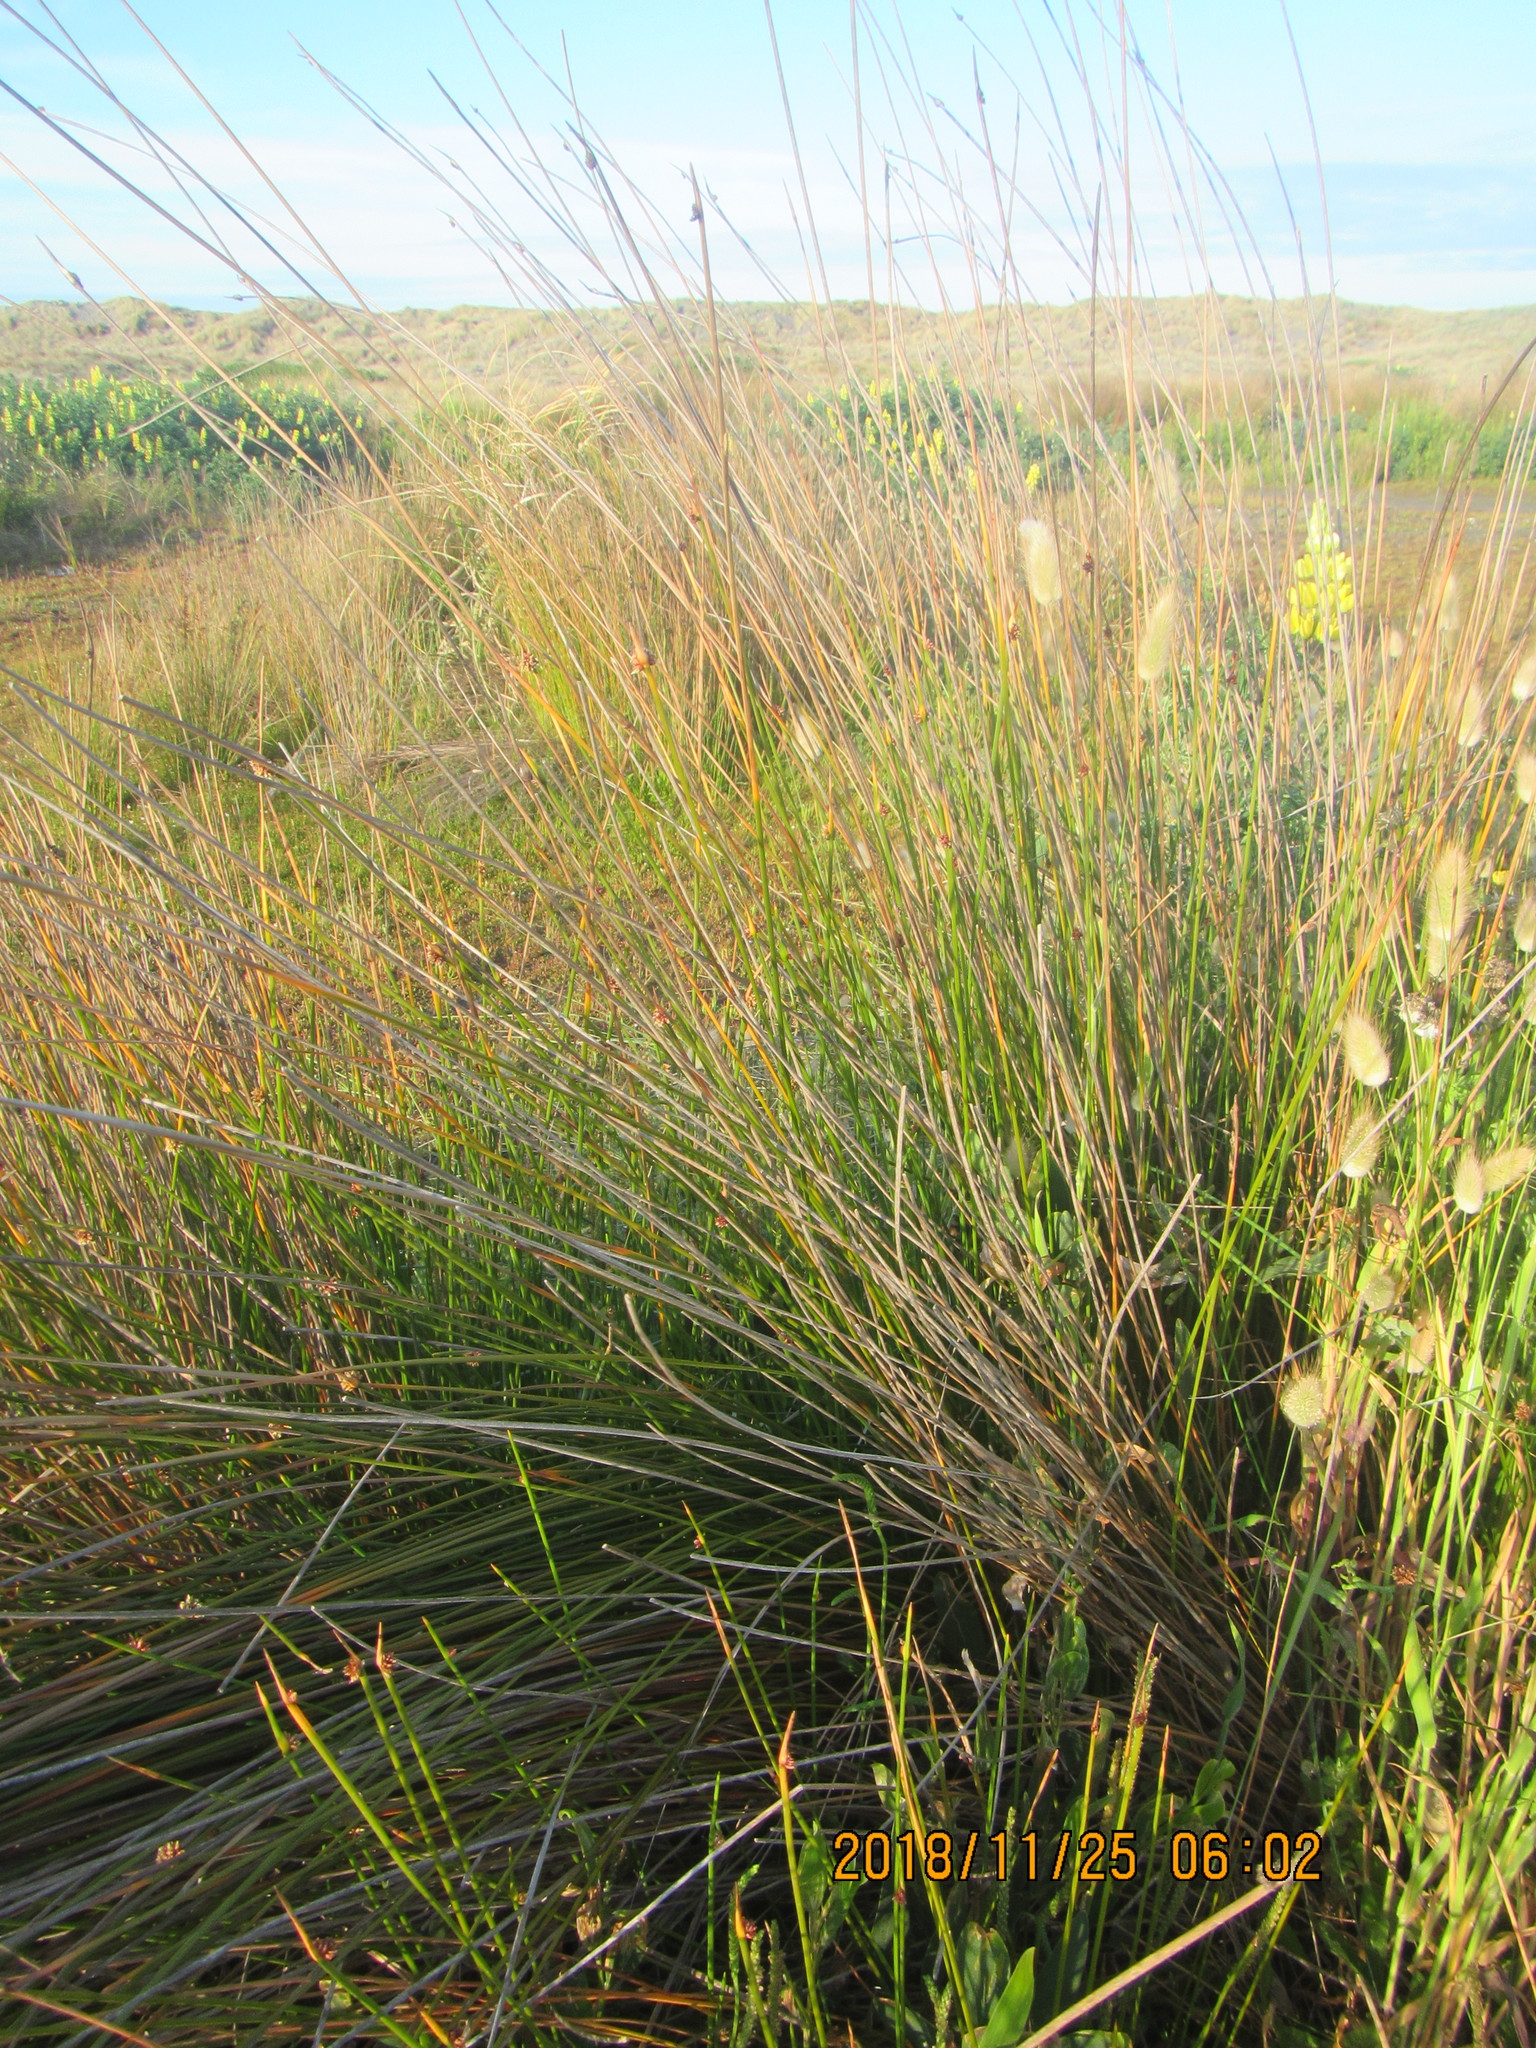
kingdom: Plantae
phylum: Tracheophyta
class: Liliopsida
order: Poales
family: Cyperaceae
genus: Ficinia
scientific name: Ficinia nodosa
